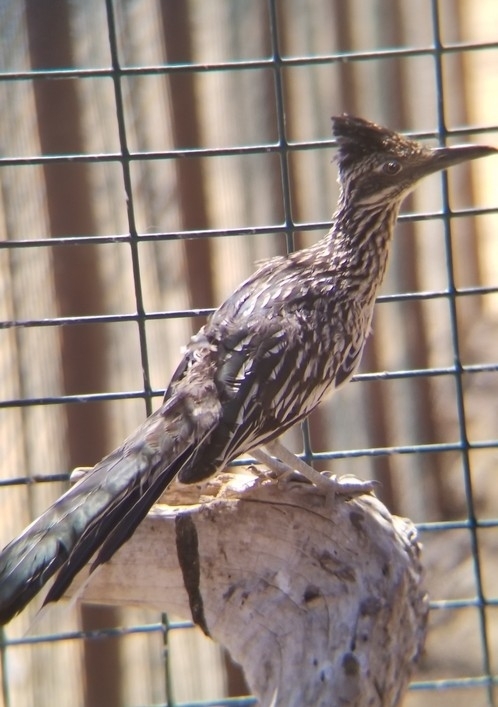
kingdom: Animalia
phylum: Chordata
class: Aves
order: Cuculiformes
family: Cuculidae
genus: Geococcyx
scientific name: Geococcyx californianus
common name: Greater roadrunner
